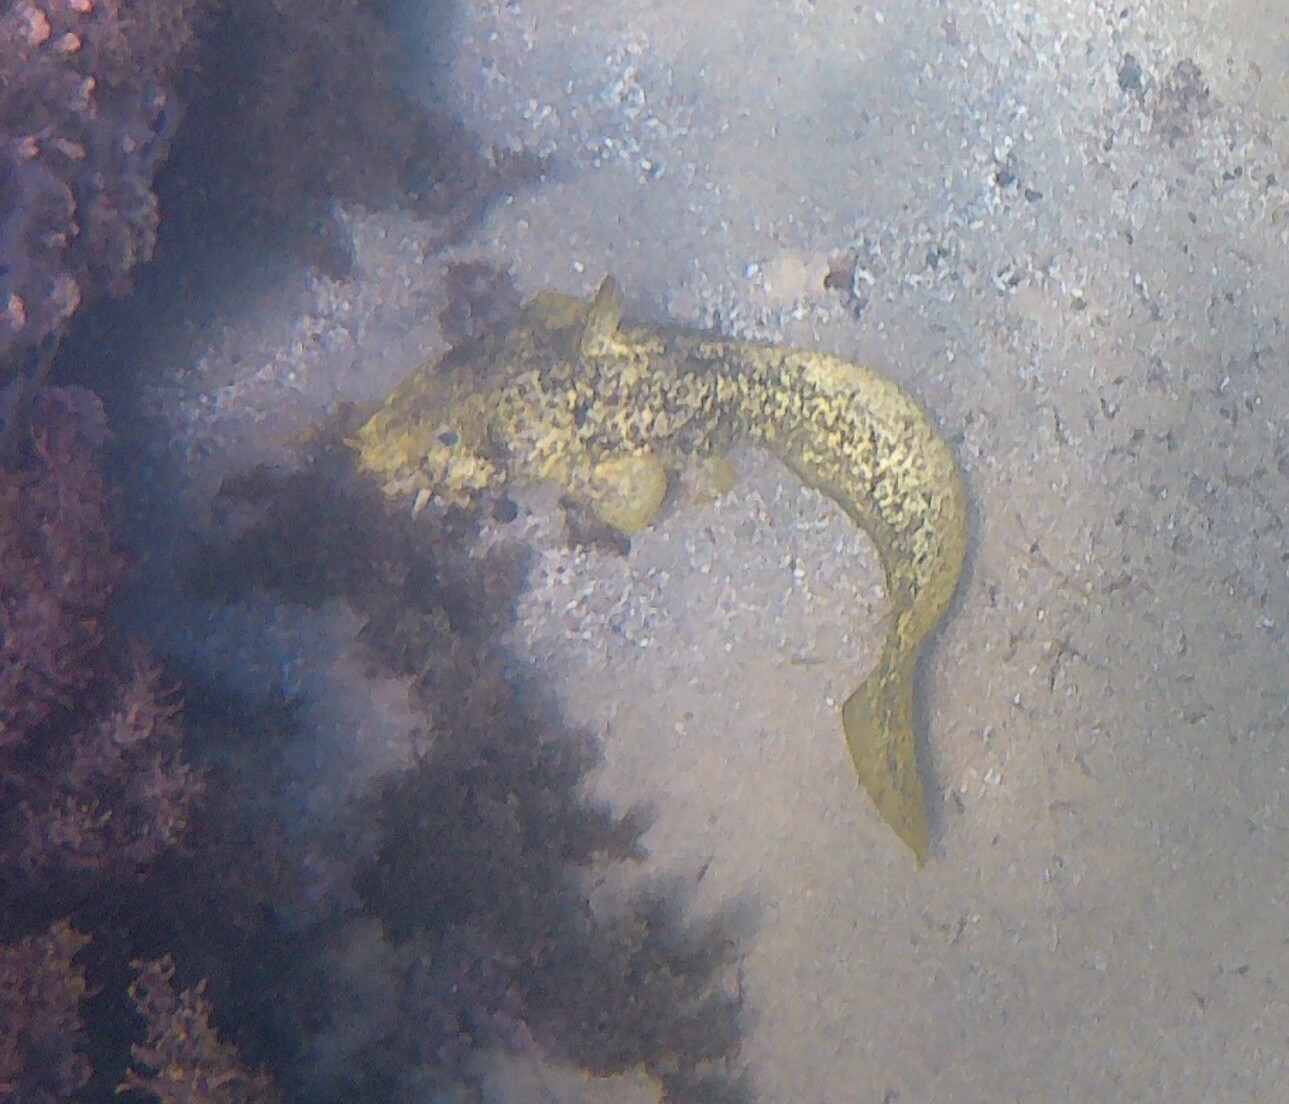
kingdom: Animalia
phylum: Chordata
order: Siluriformes
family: Plotosidae
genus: Cnidoglanis
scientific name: Cnidoglanis macrocephalus
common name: Cobbler
